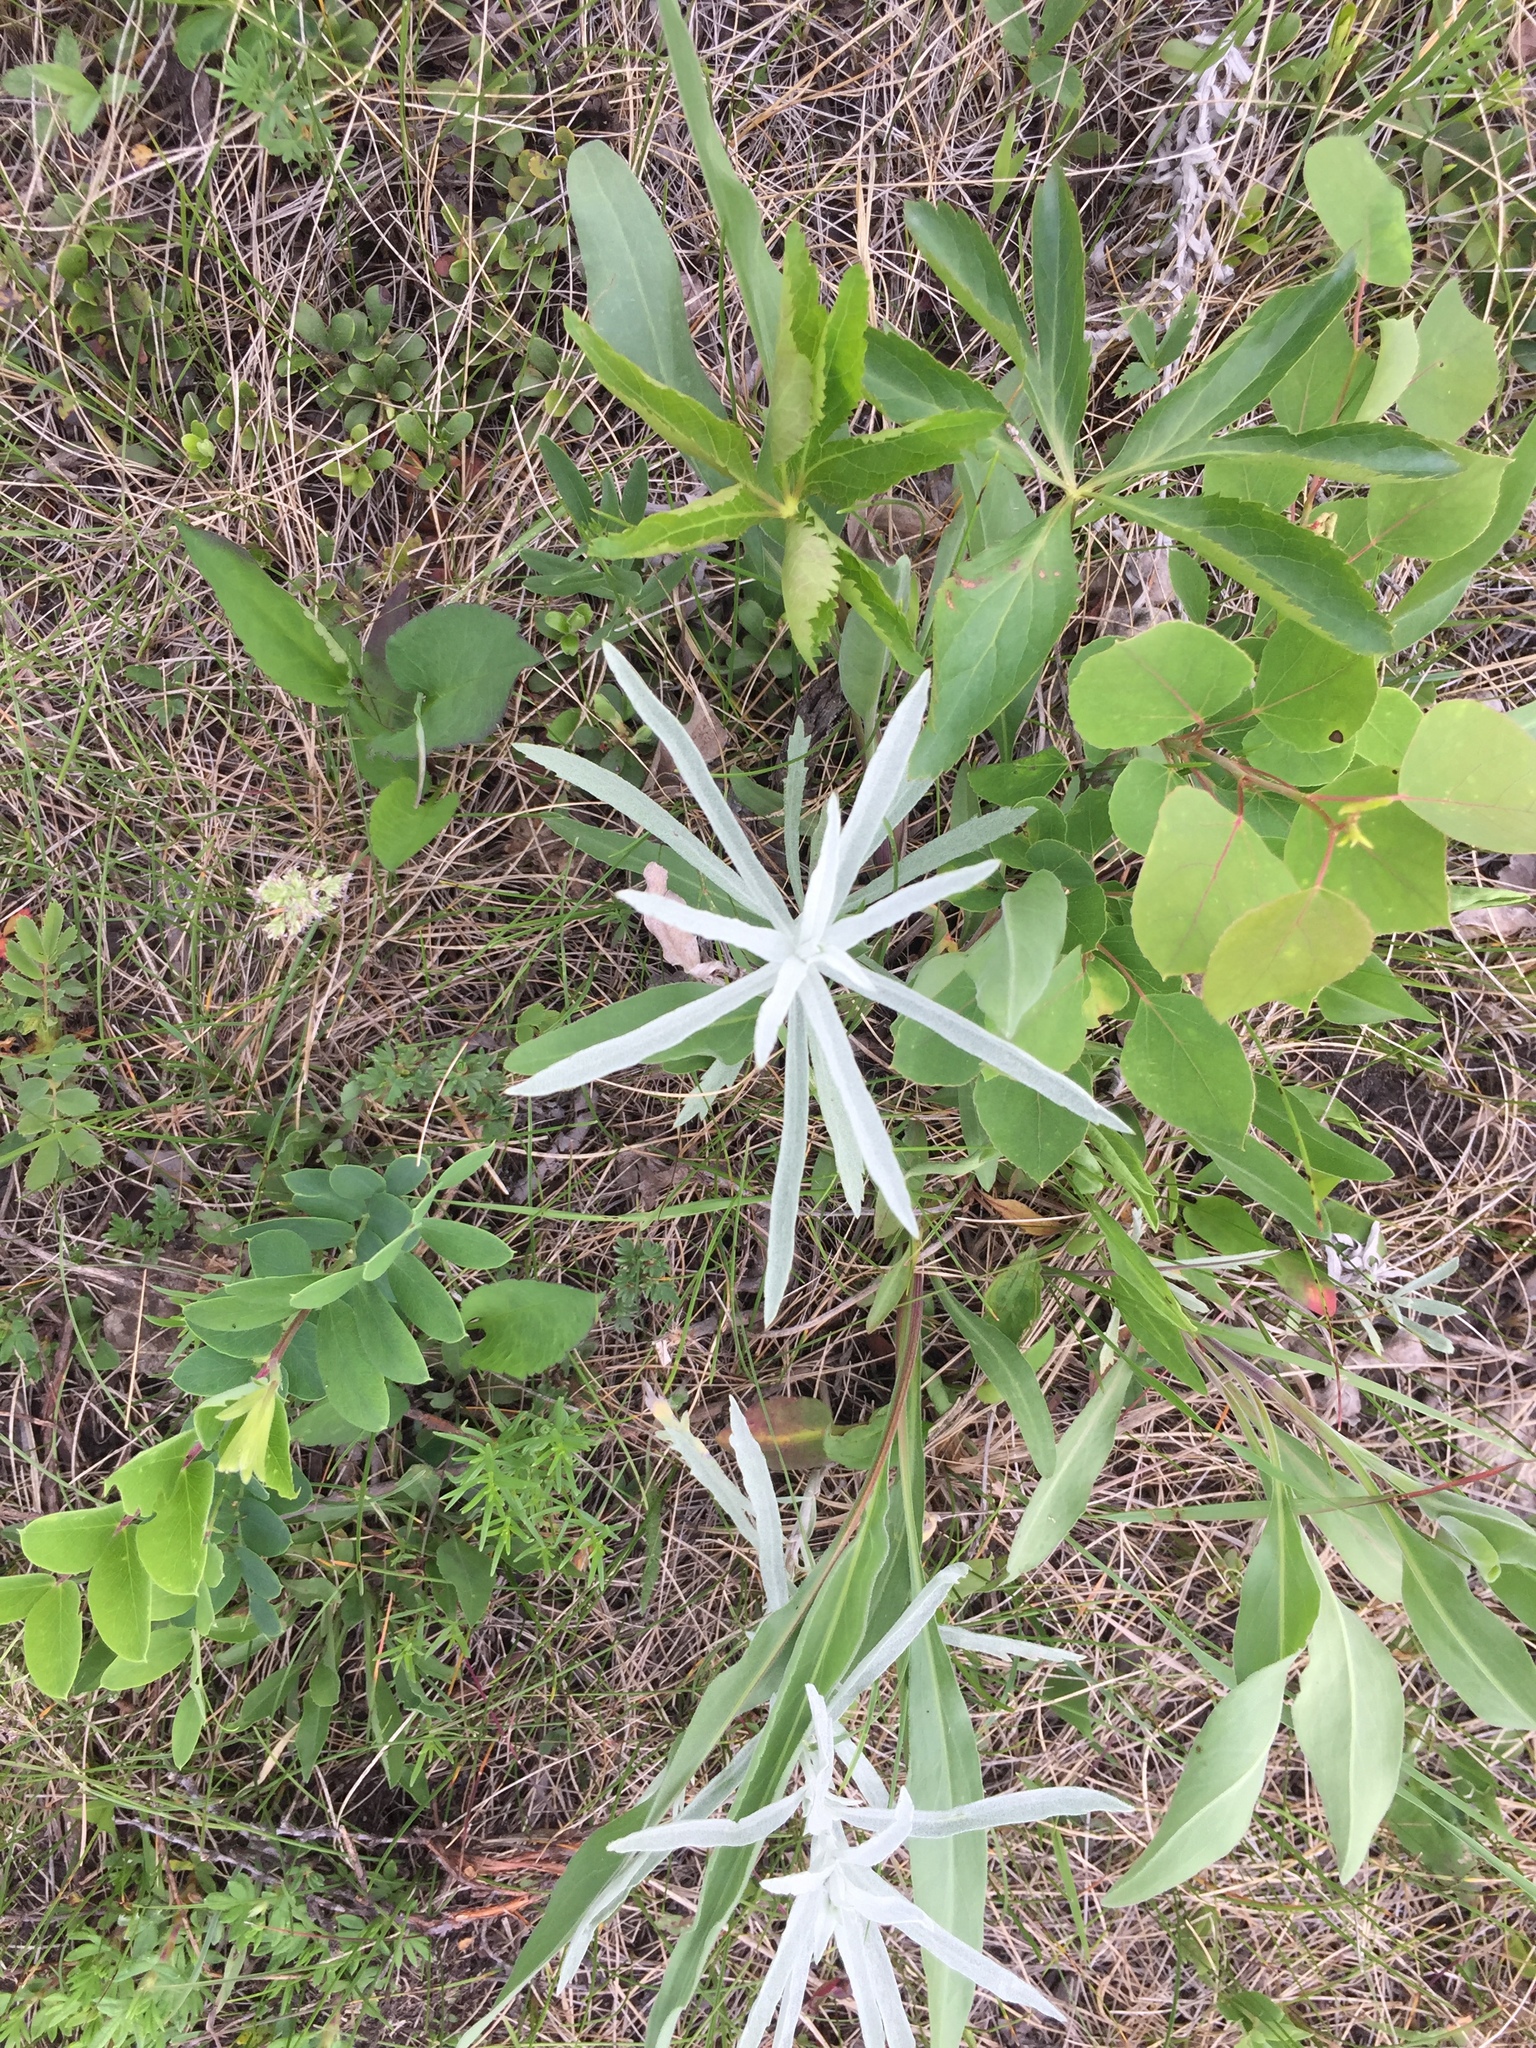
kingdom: Plantae
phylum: Tracheophyta
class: Magnoliopsida
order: Asterales
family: Asteraceae
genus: Artemisia
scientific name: Artemisia ludoviciana
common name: Western mugwort
